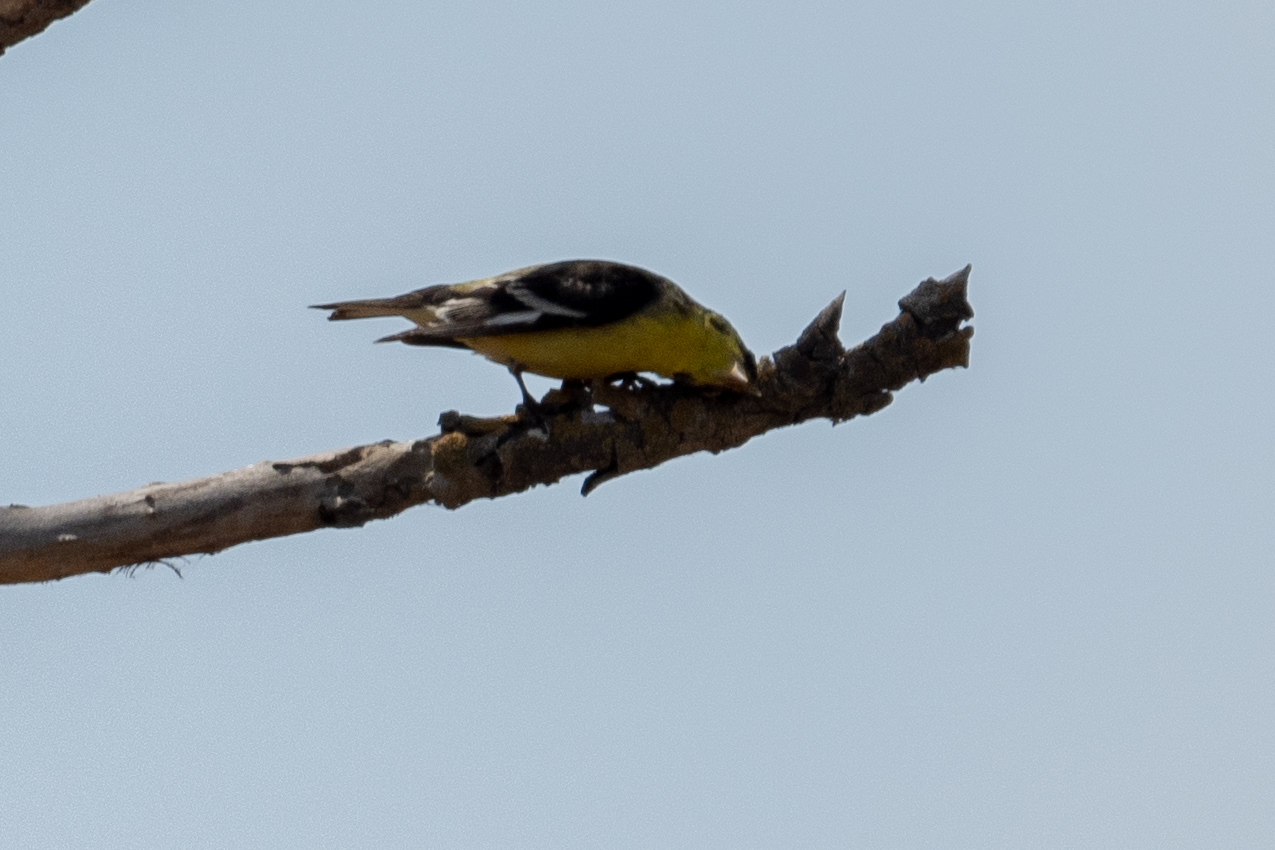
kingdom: Animalia
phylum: Chordata
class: Aves
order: Passeriformes
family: Fringillidae
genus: Spinus
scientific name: Spinus psaltria
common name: Lesser goldfinch
